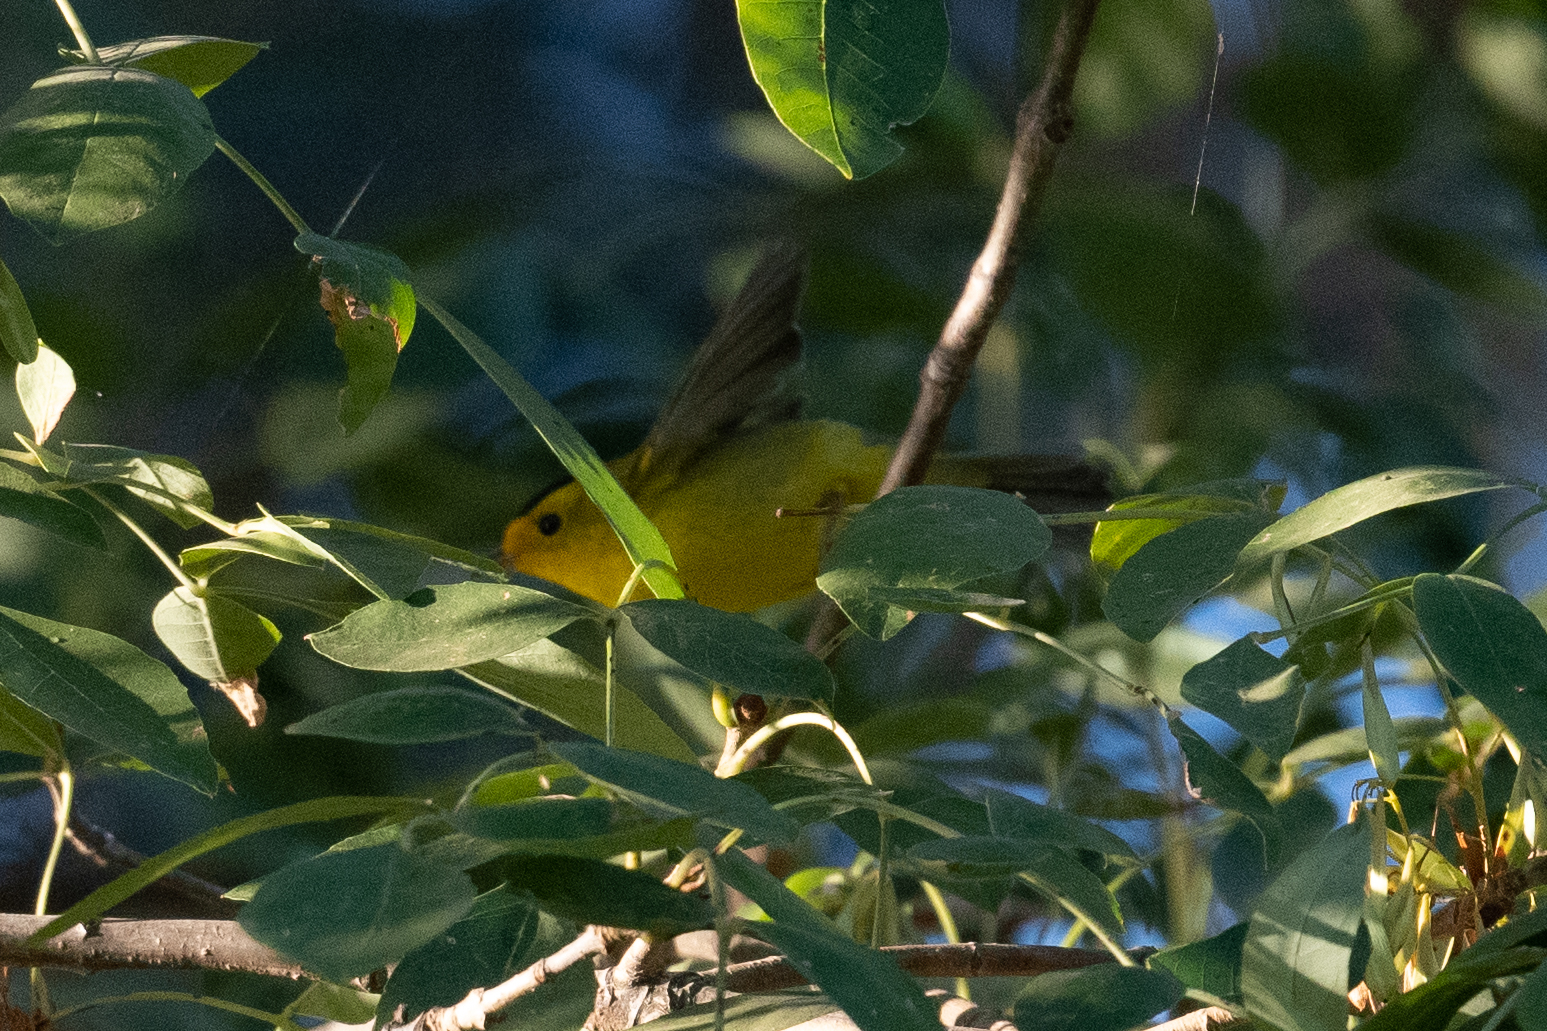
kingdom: Animalia
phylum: Chordata
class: Aves
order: Passeriformes
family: Parulidae
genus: Cardellina
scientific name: Cardellina pusilla
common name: Wilson's warbler
